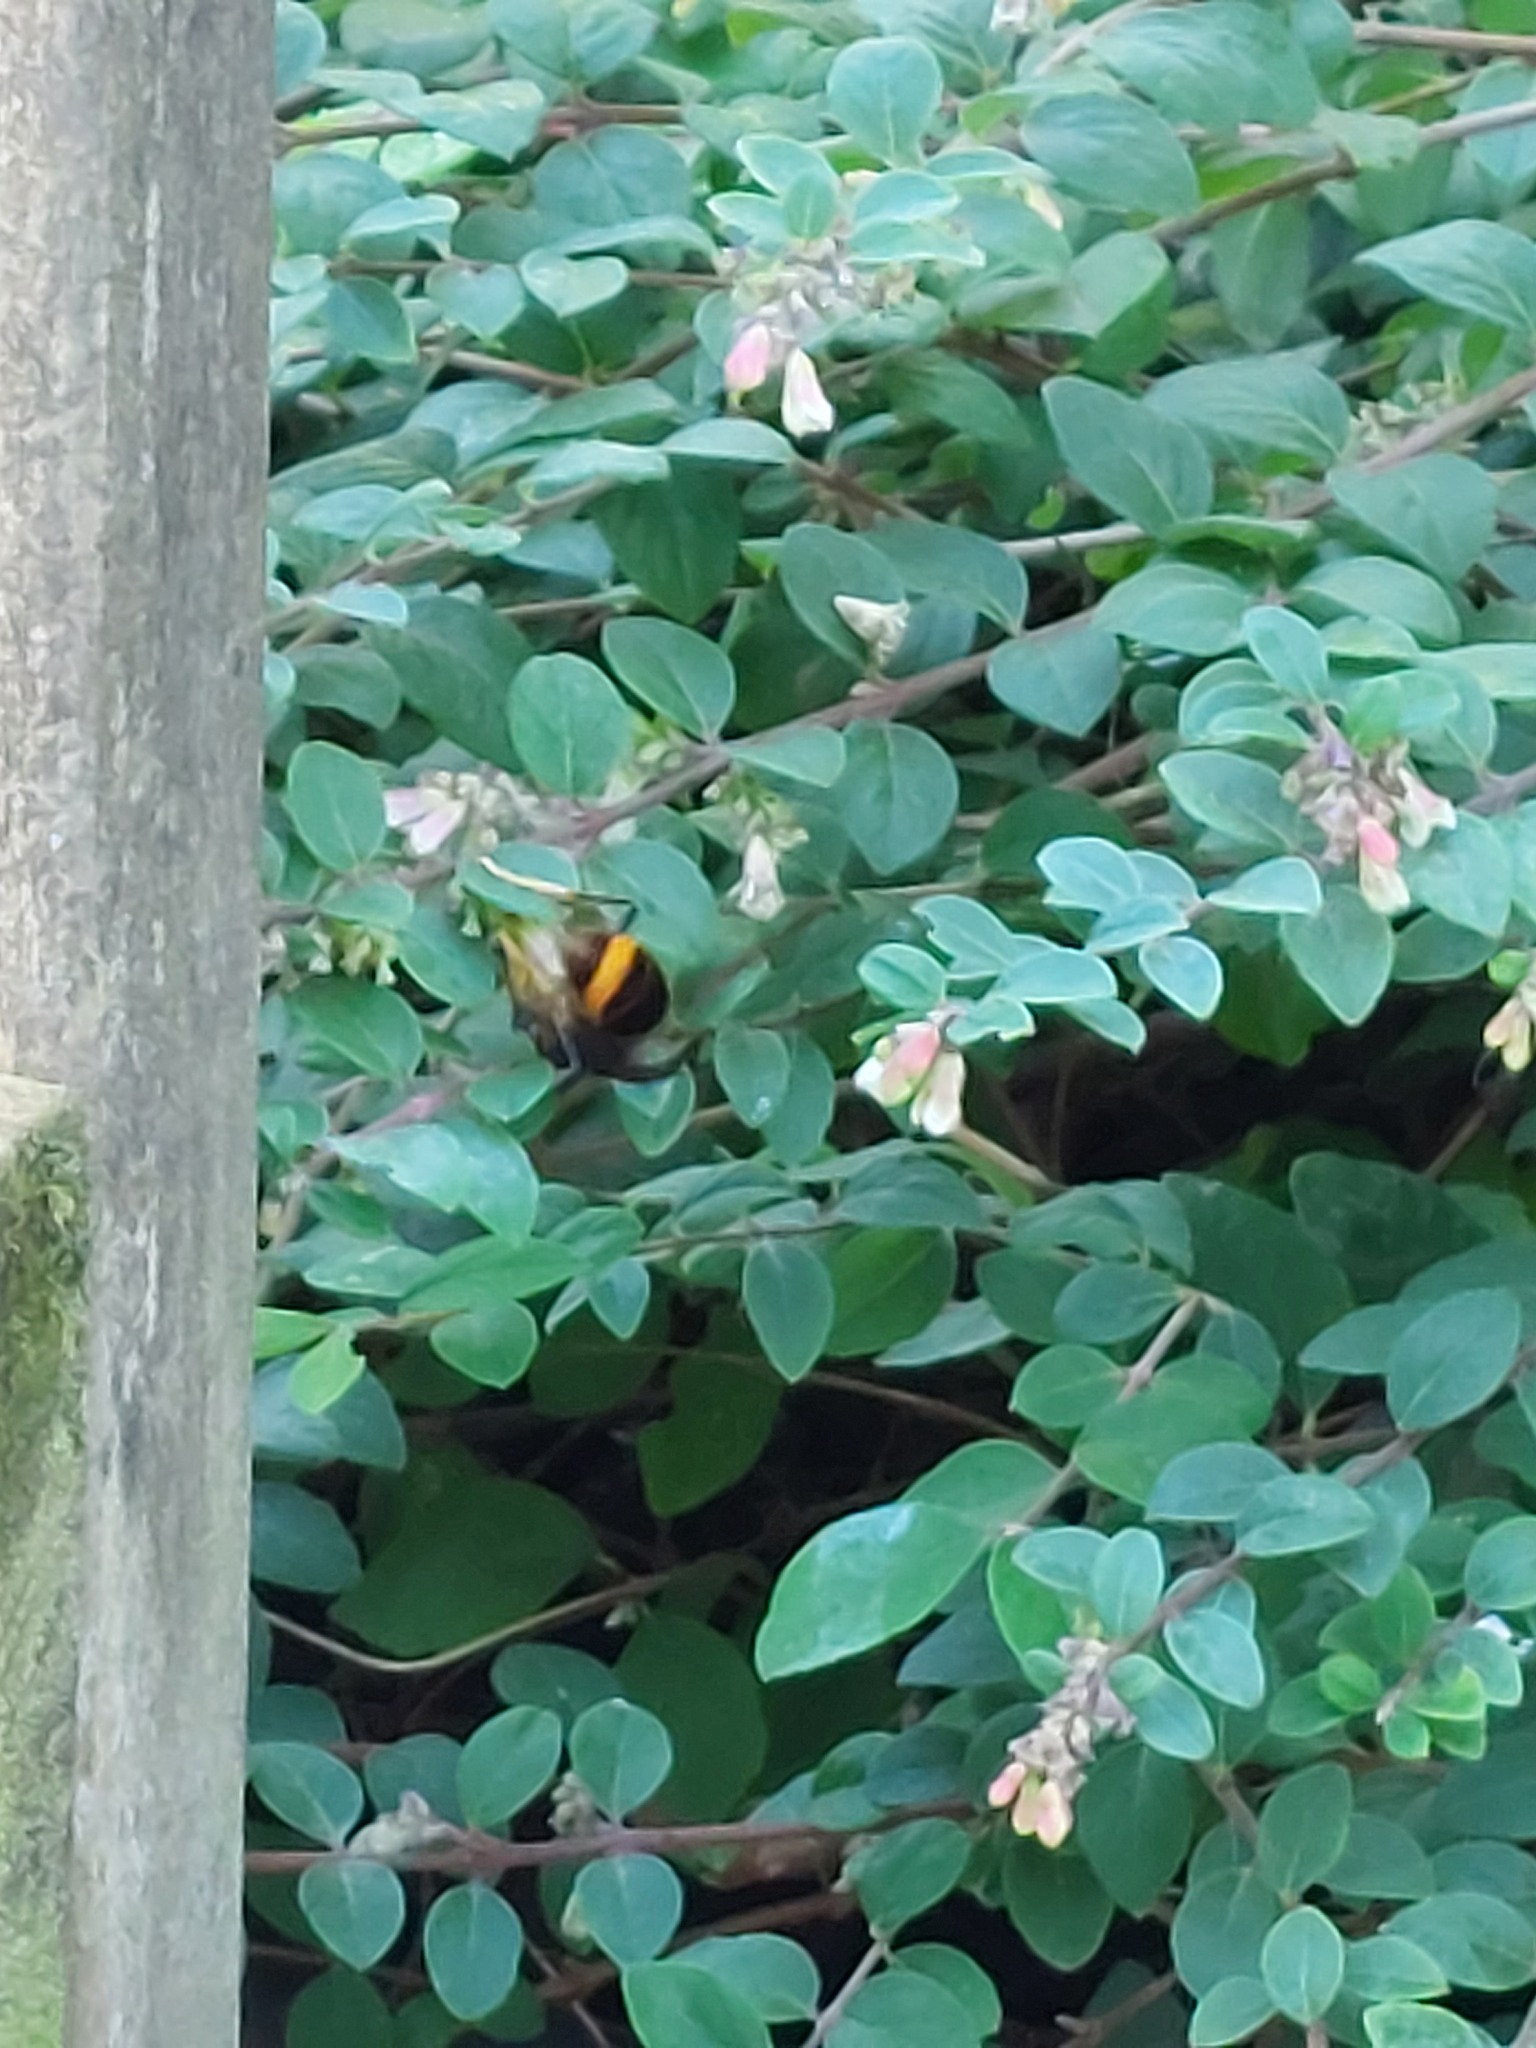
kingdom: Animalia
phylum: Arthropoda
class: Insecta
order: Hymenoptera
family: Vespidae
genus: Vespa
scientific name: Vespa velutina
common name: Asian hornet
